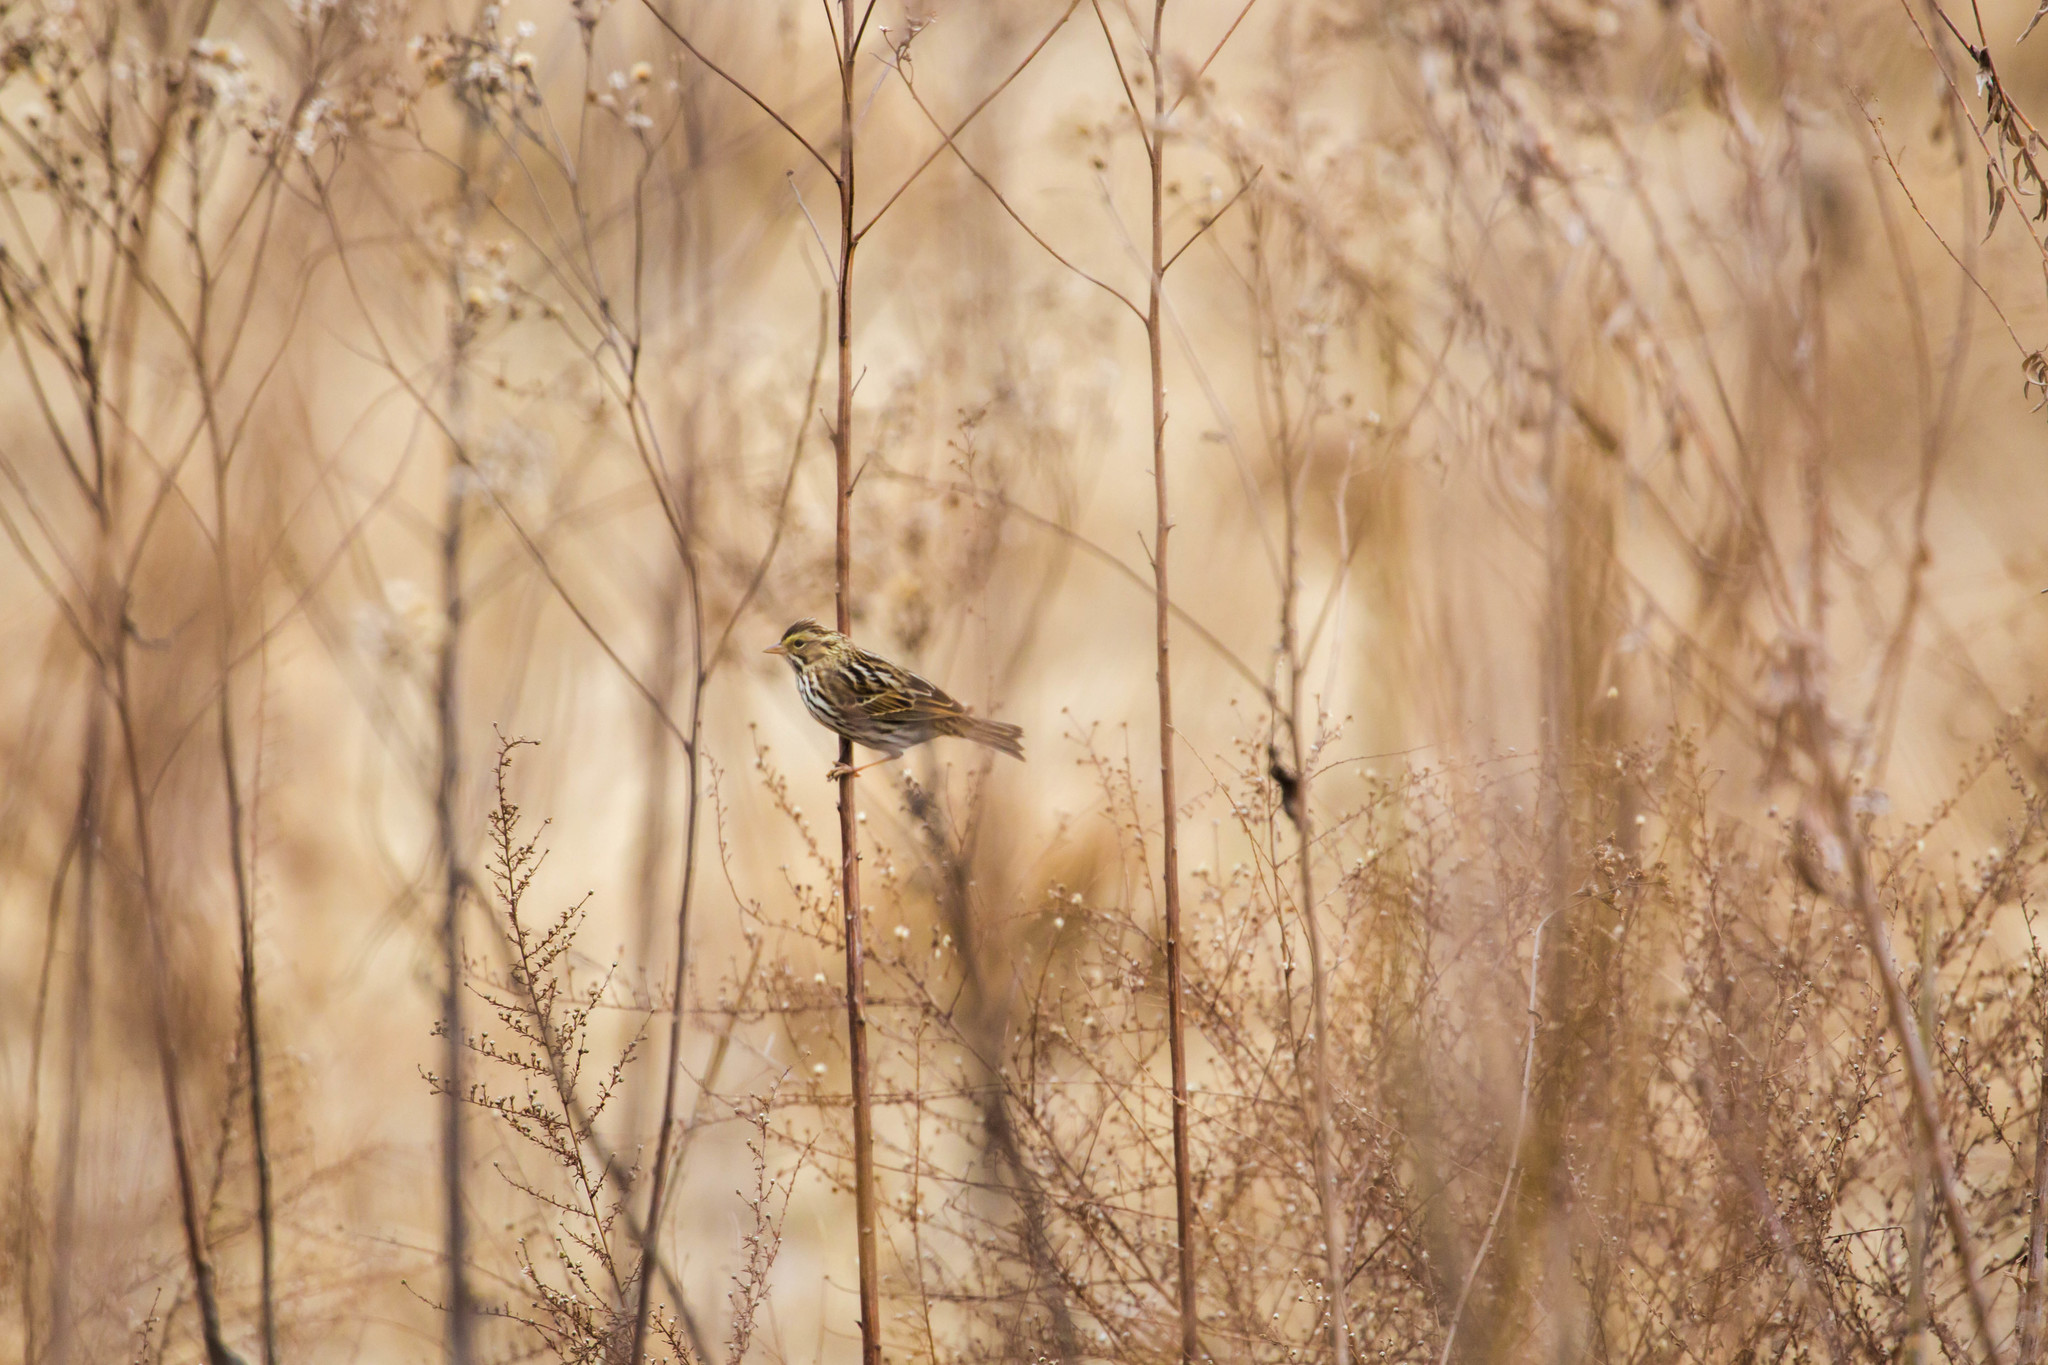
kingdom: Animalia
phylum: Chordata
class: Aves
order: Passeriformes
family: Passerellidae
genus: Passerculus
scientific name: Passerculus sandwichensis
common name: Savannah sparrow
